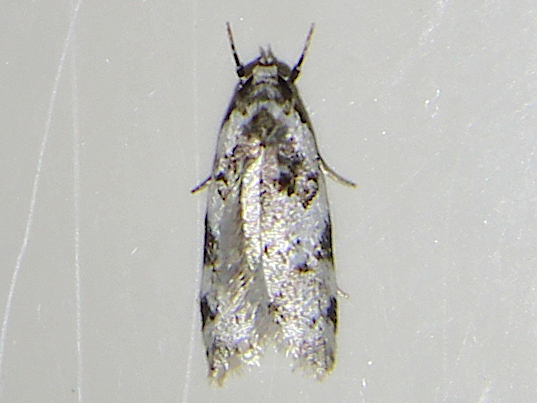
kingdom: Animalia
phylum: Arthropoda
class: Insecta
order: Lepidoptera
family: Oecophoridae
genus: Trachypepla
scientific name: Trachypepla galaxias
